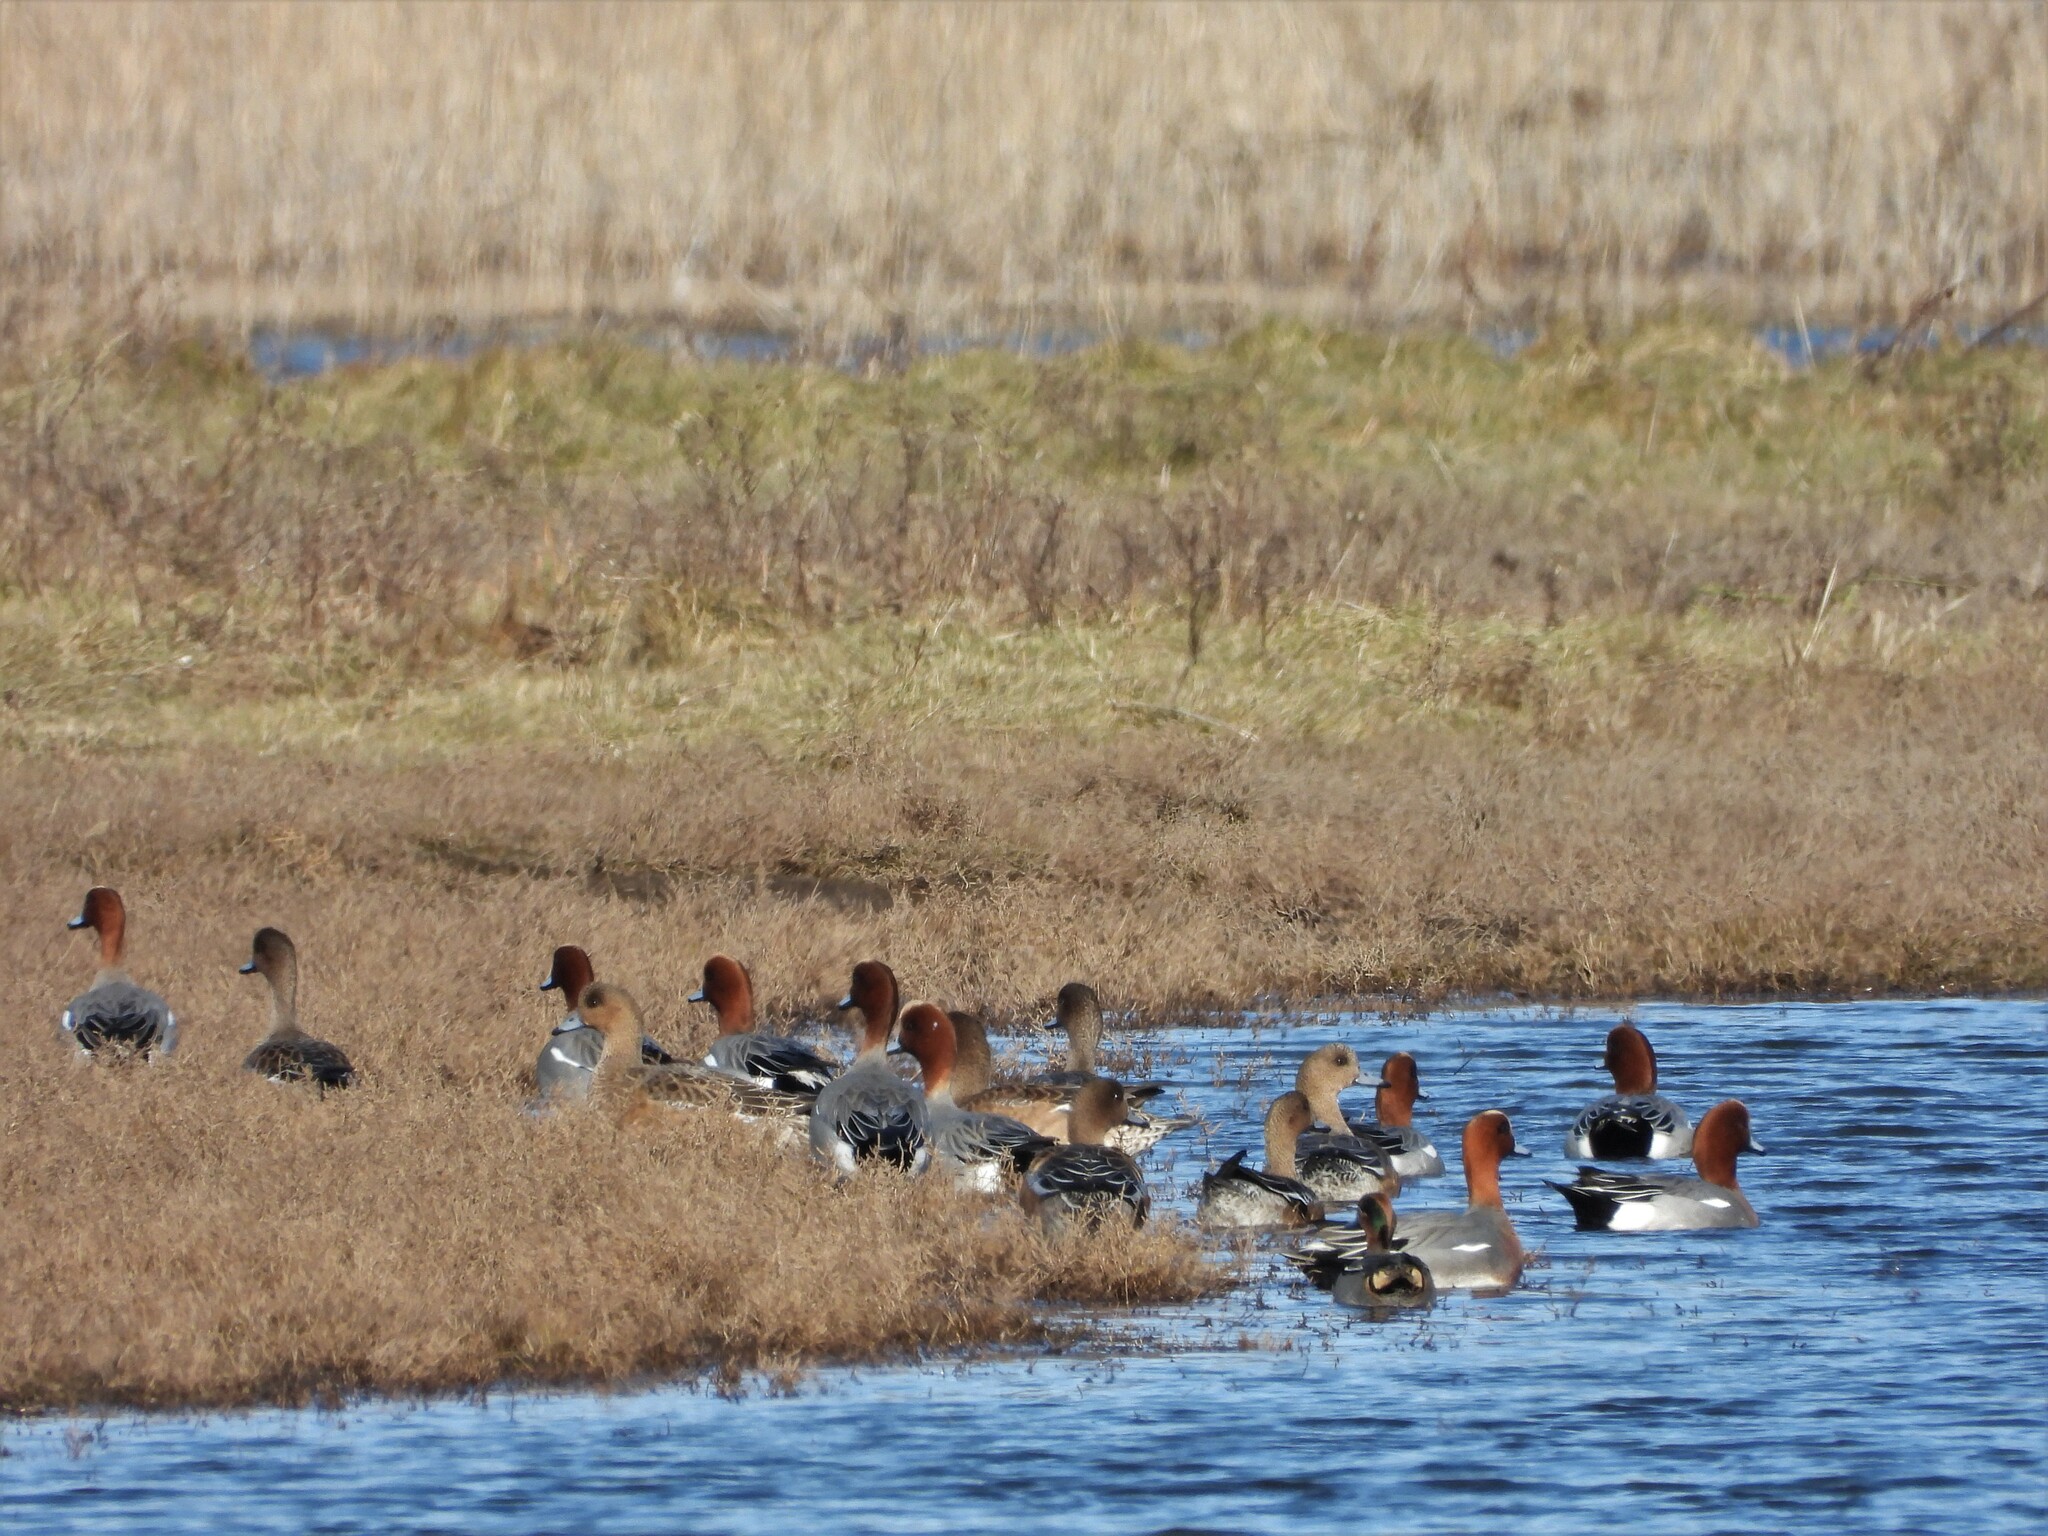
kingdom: Animalia
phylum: Chordata
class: Aves
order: Anseriformes
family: Anatidae
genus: Mareca
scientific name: Mareca penelope
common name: Eurasian wigeon
